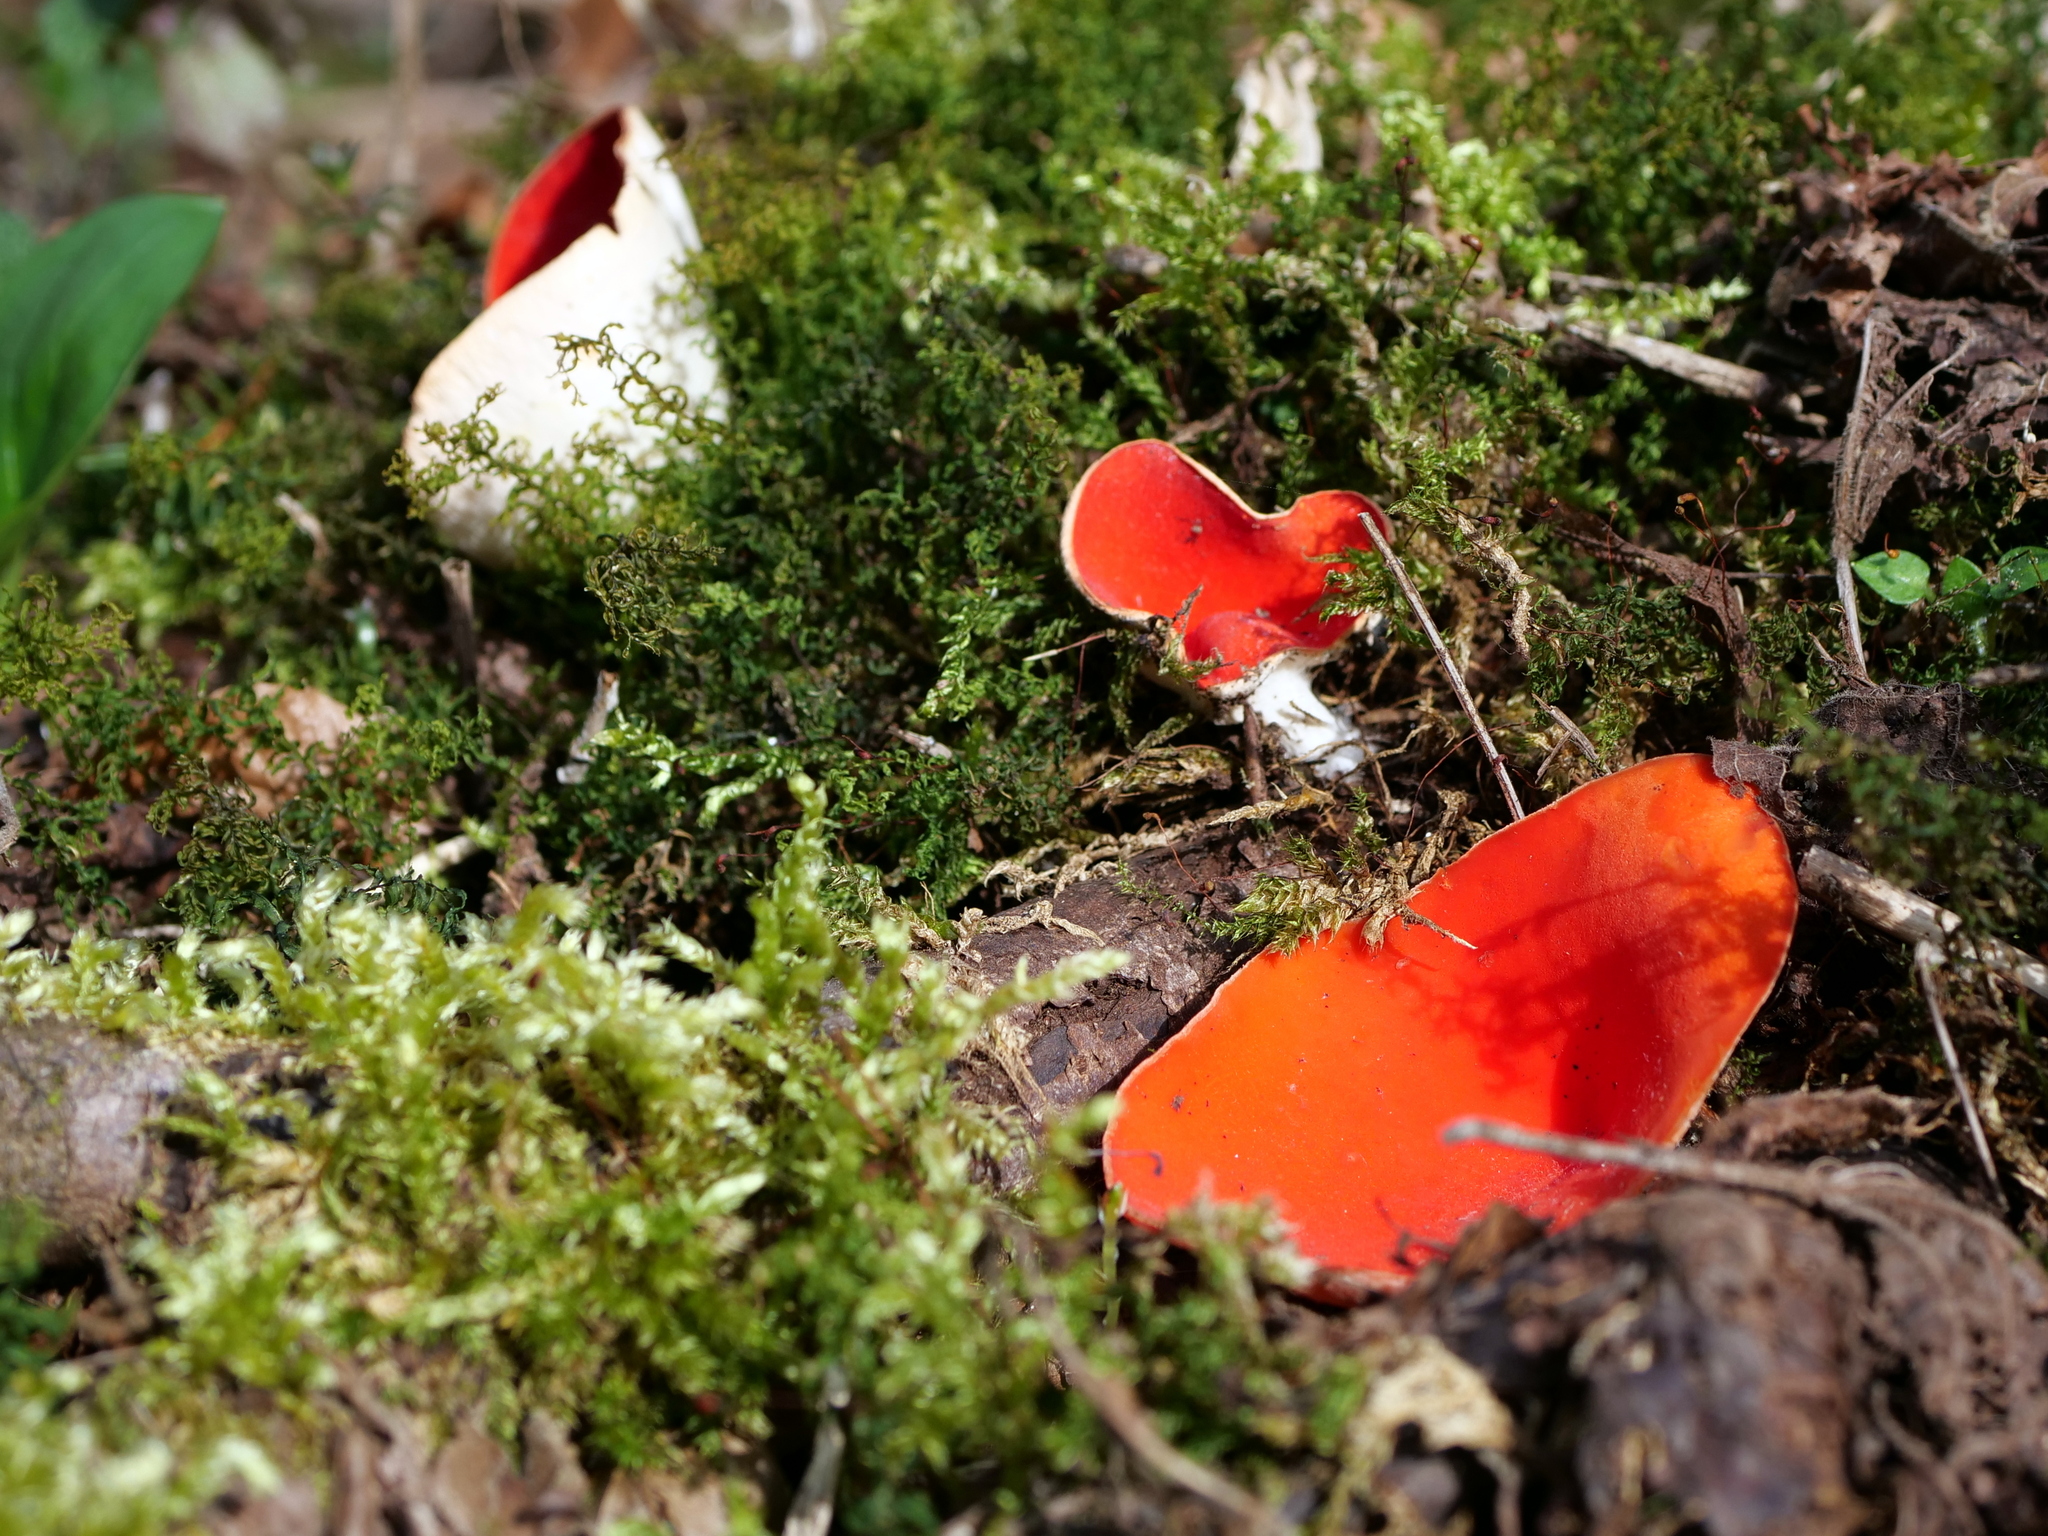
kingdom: Fungi
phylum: Ascomycota
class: Pezizomycetes
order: Pezizales
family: Sarcoscyphaceae
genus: Sarcoscypha
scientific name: Sarcoscypha
